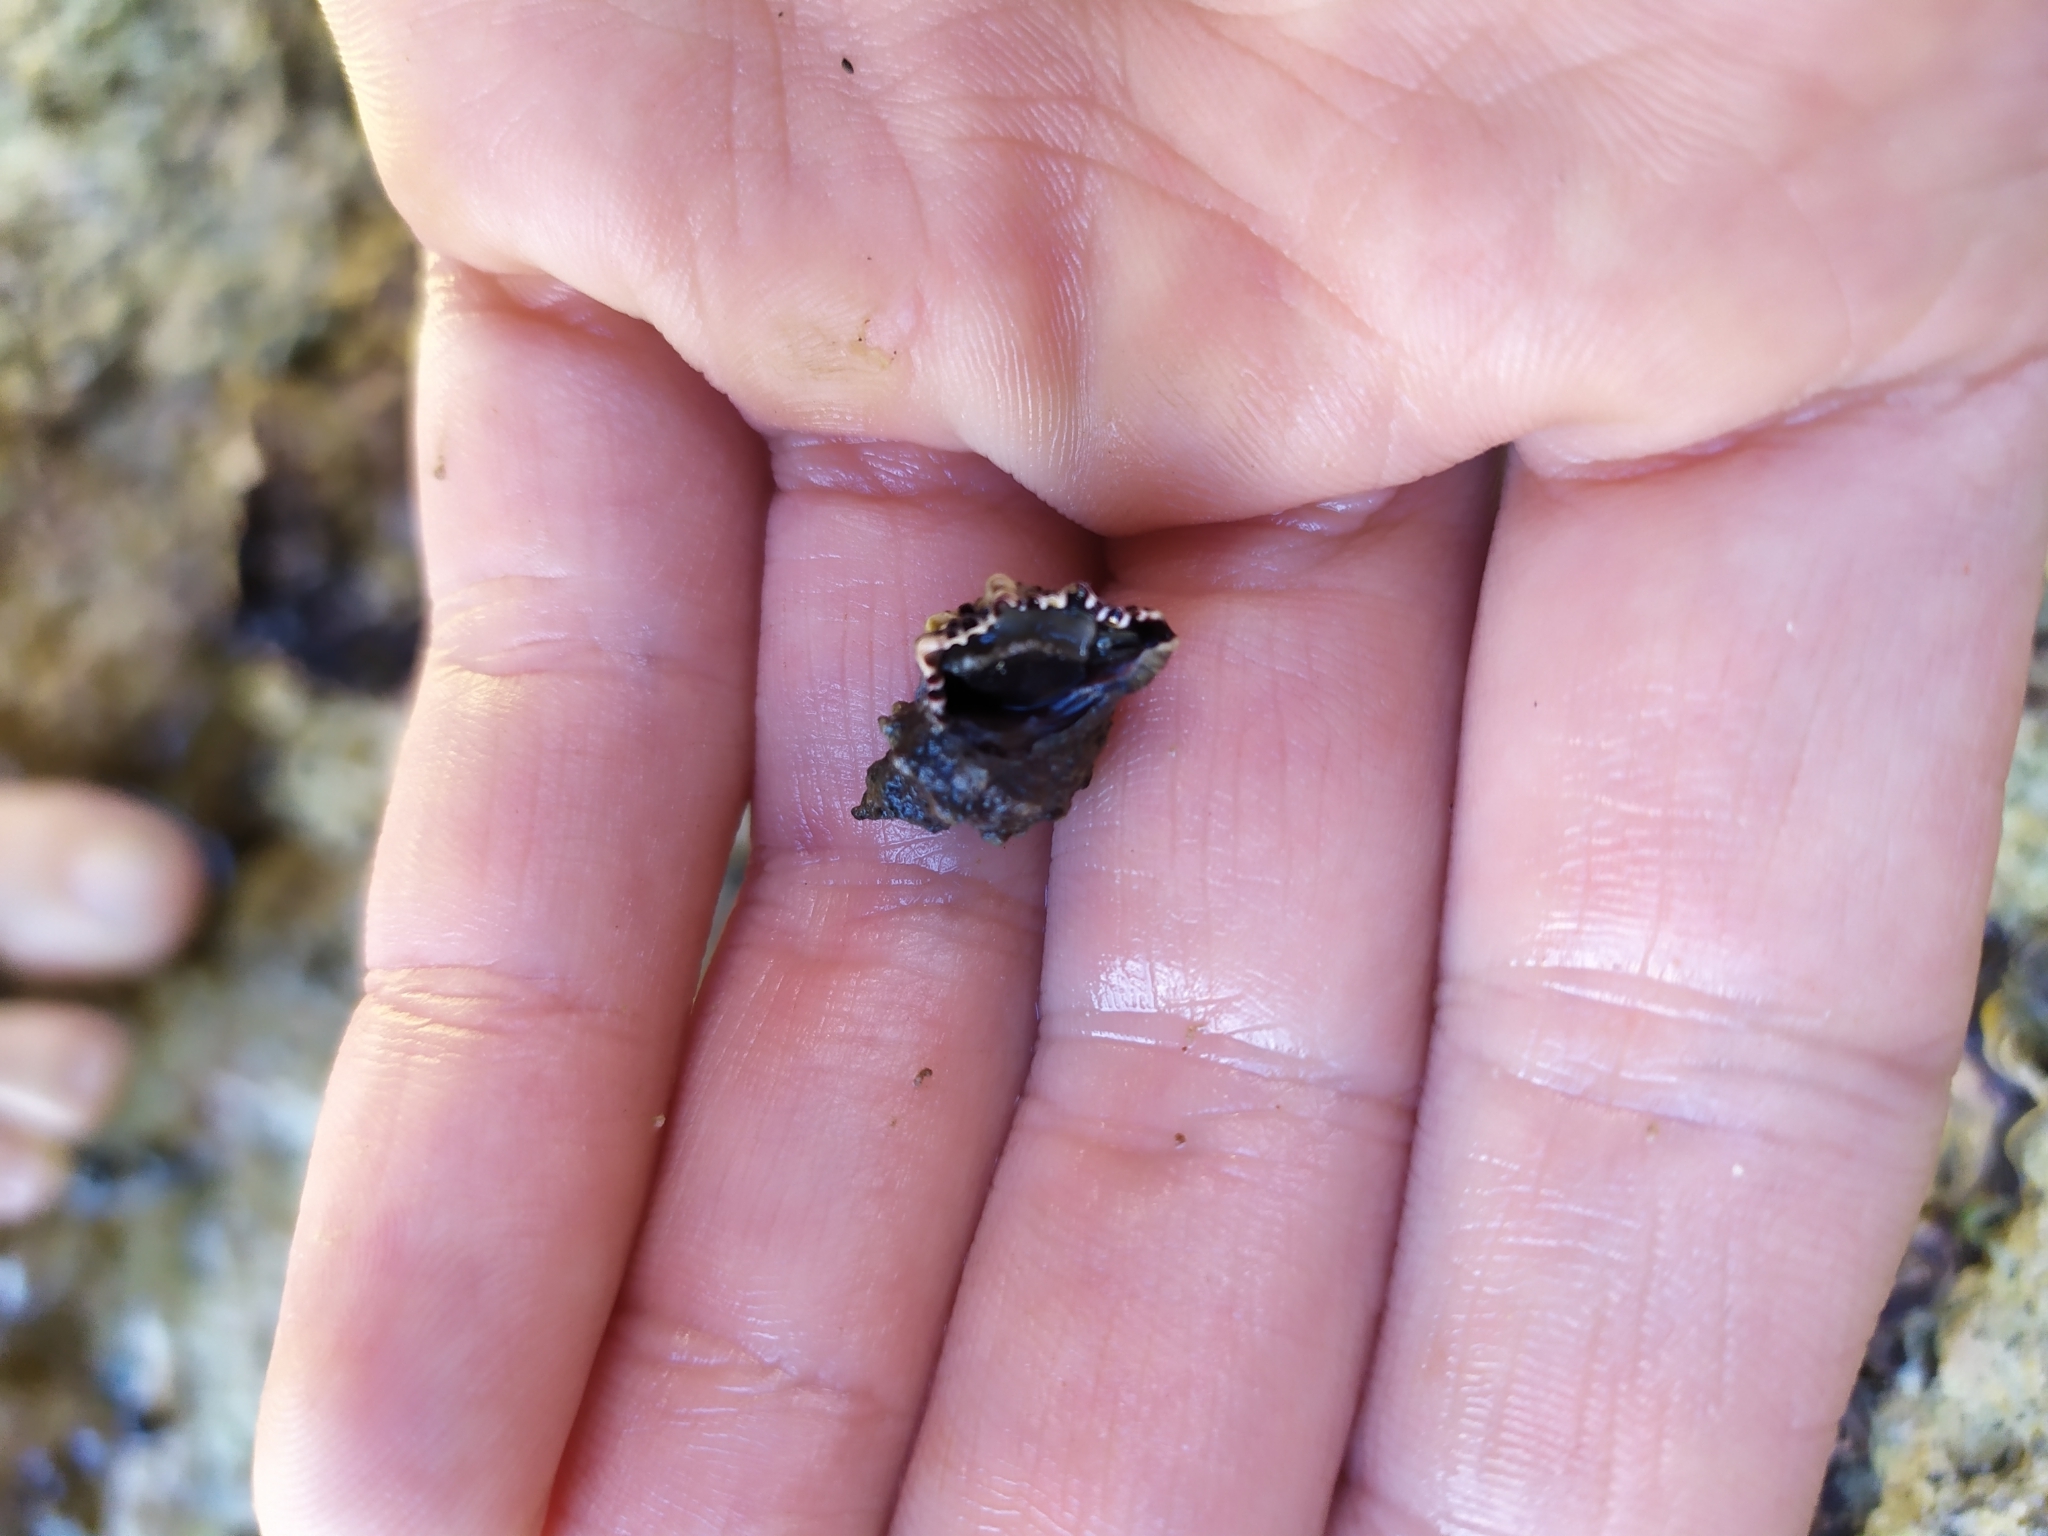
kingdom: Animalia
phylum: Mollusca
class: Gastropoda
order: Neogastropoda
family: Muricidae
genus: Haustrum
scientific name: Haustrum scobina
